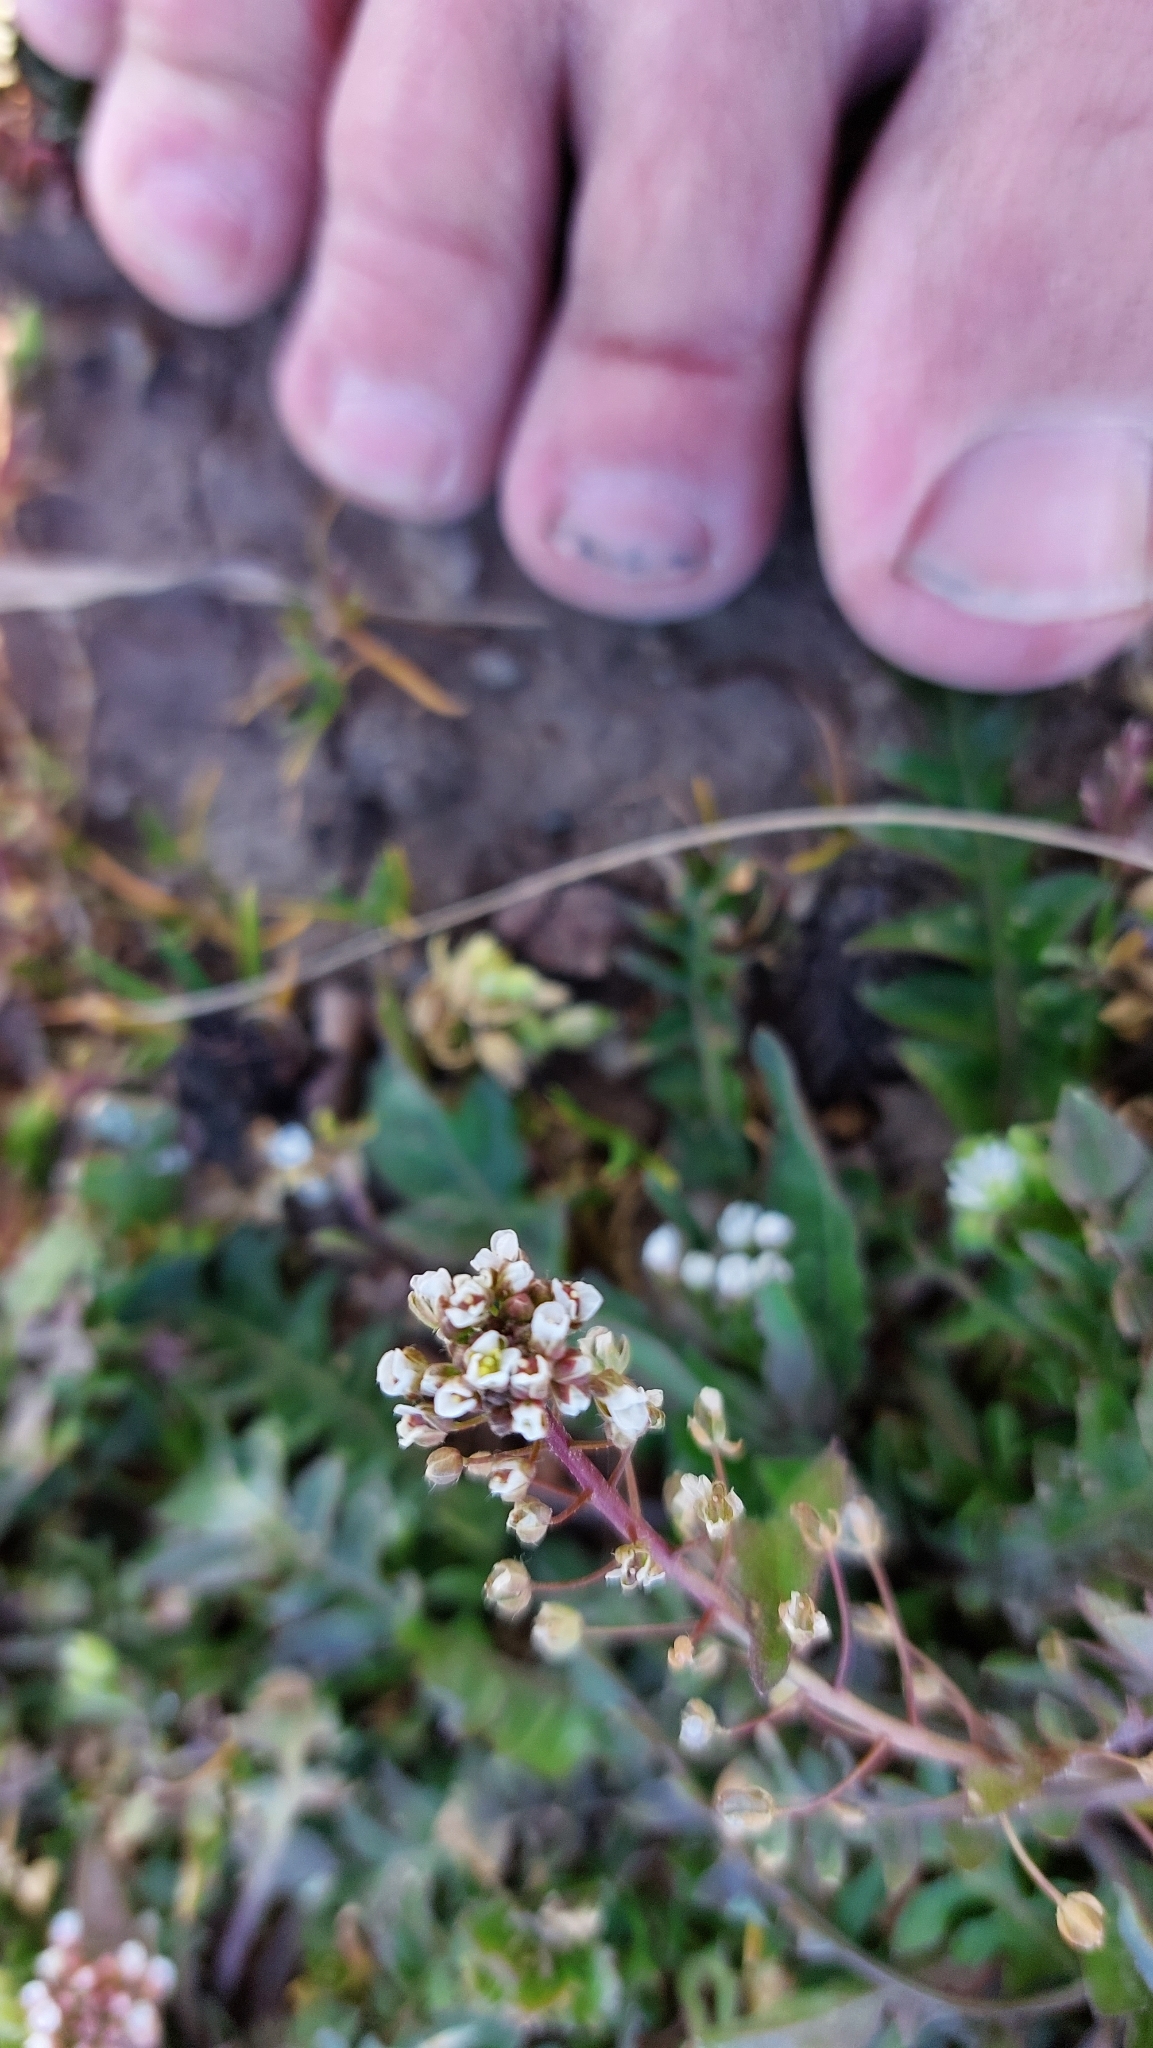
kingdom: Plantae
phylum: Tracheophyta
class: Magnoliopsida
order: Brassicales
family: Brassicaceae
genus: Capsella
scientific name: Capsella bursa-pastoris
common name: Shepherd's purse
